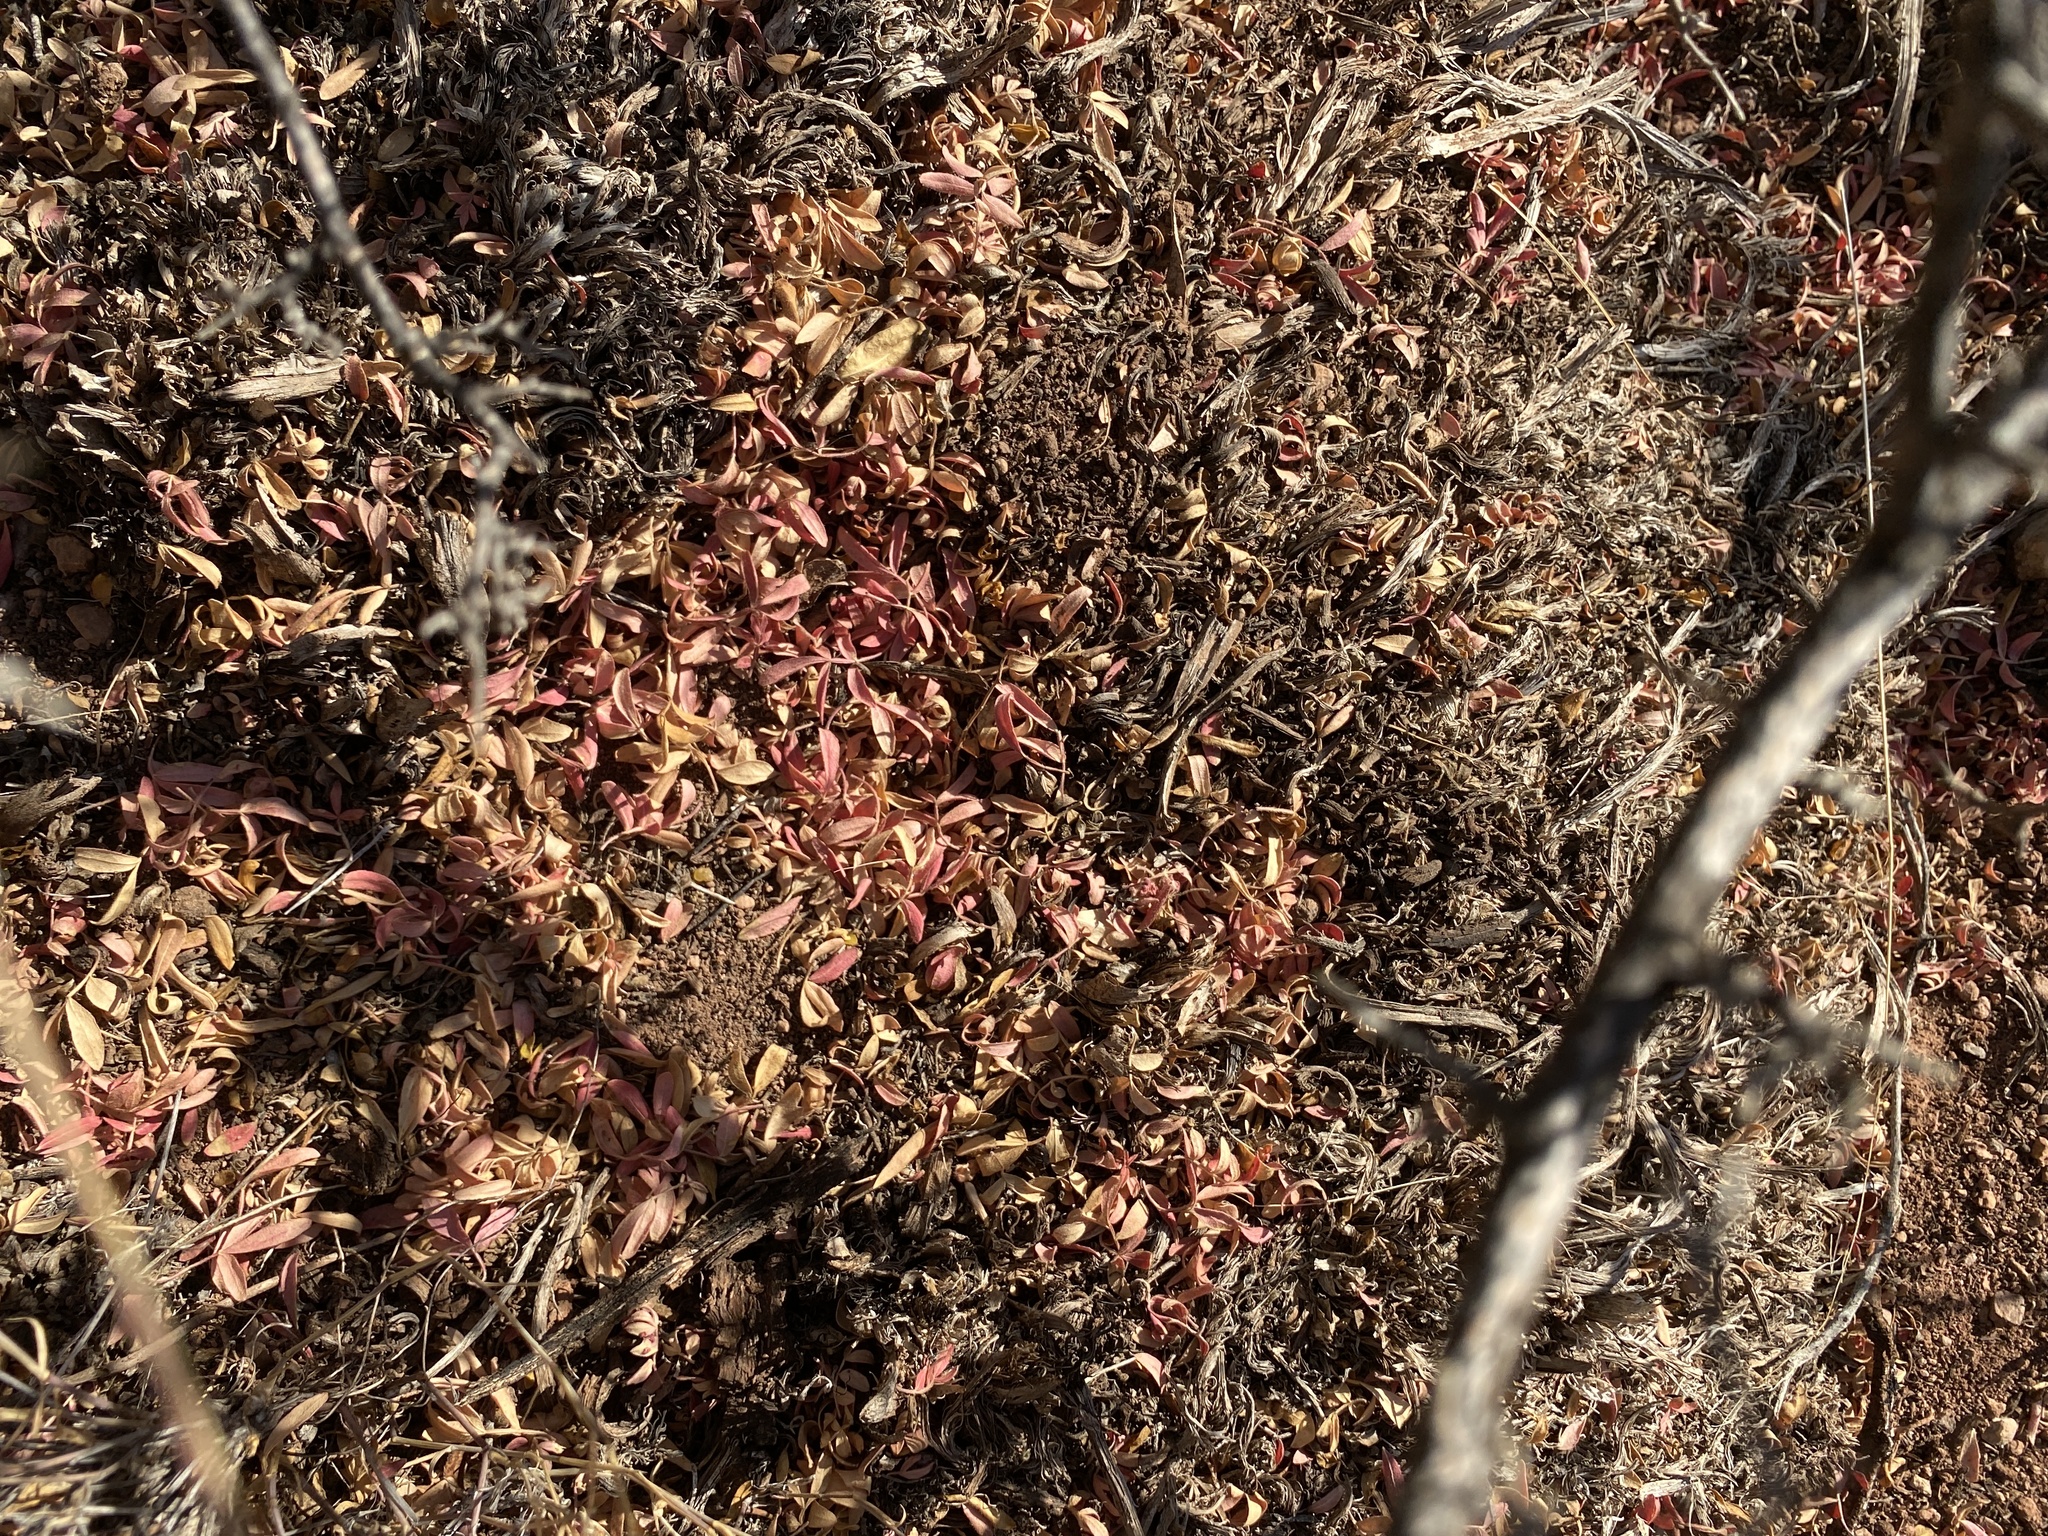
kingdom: Plantae
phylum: Tracheophyta
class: Magnoliopsida
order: Sapindales
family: Anacardiaceae
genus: Rhus
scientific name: Rhus microphylla
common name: Desert sumac
